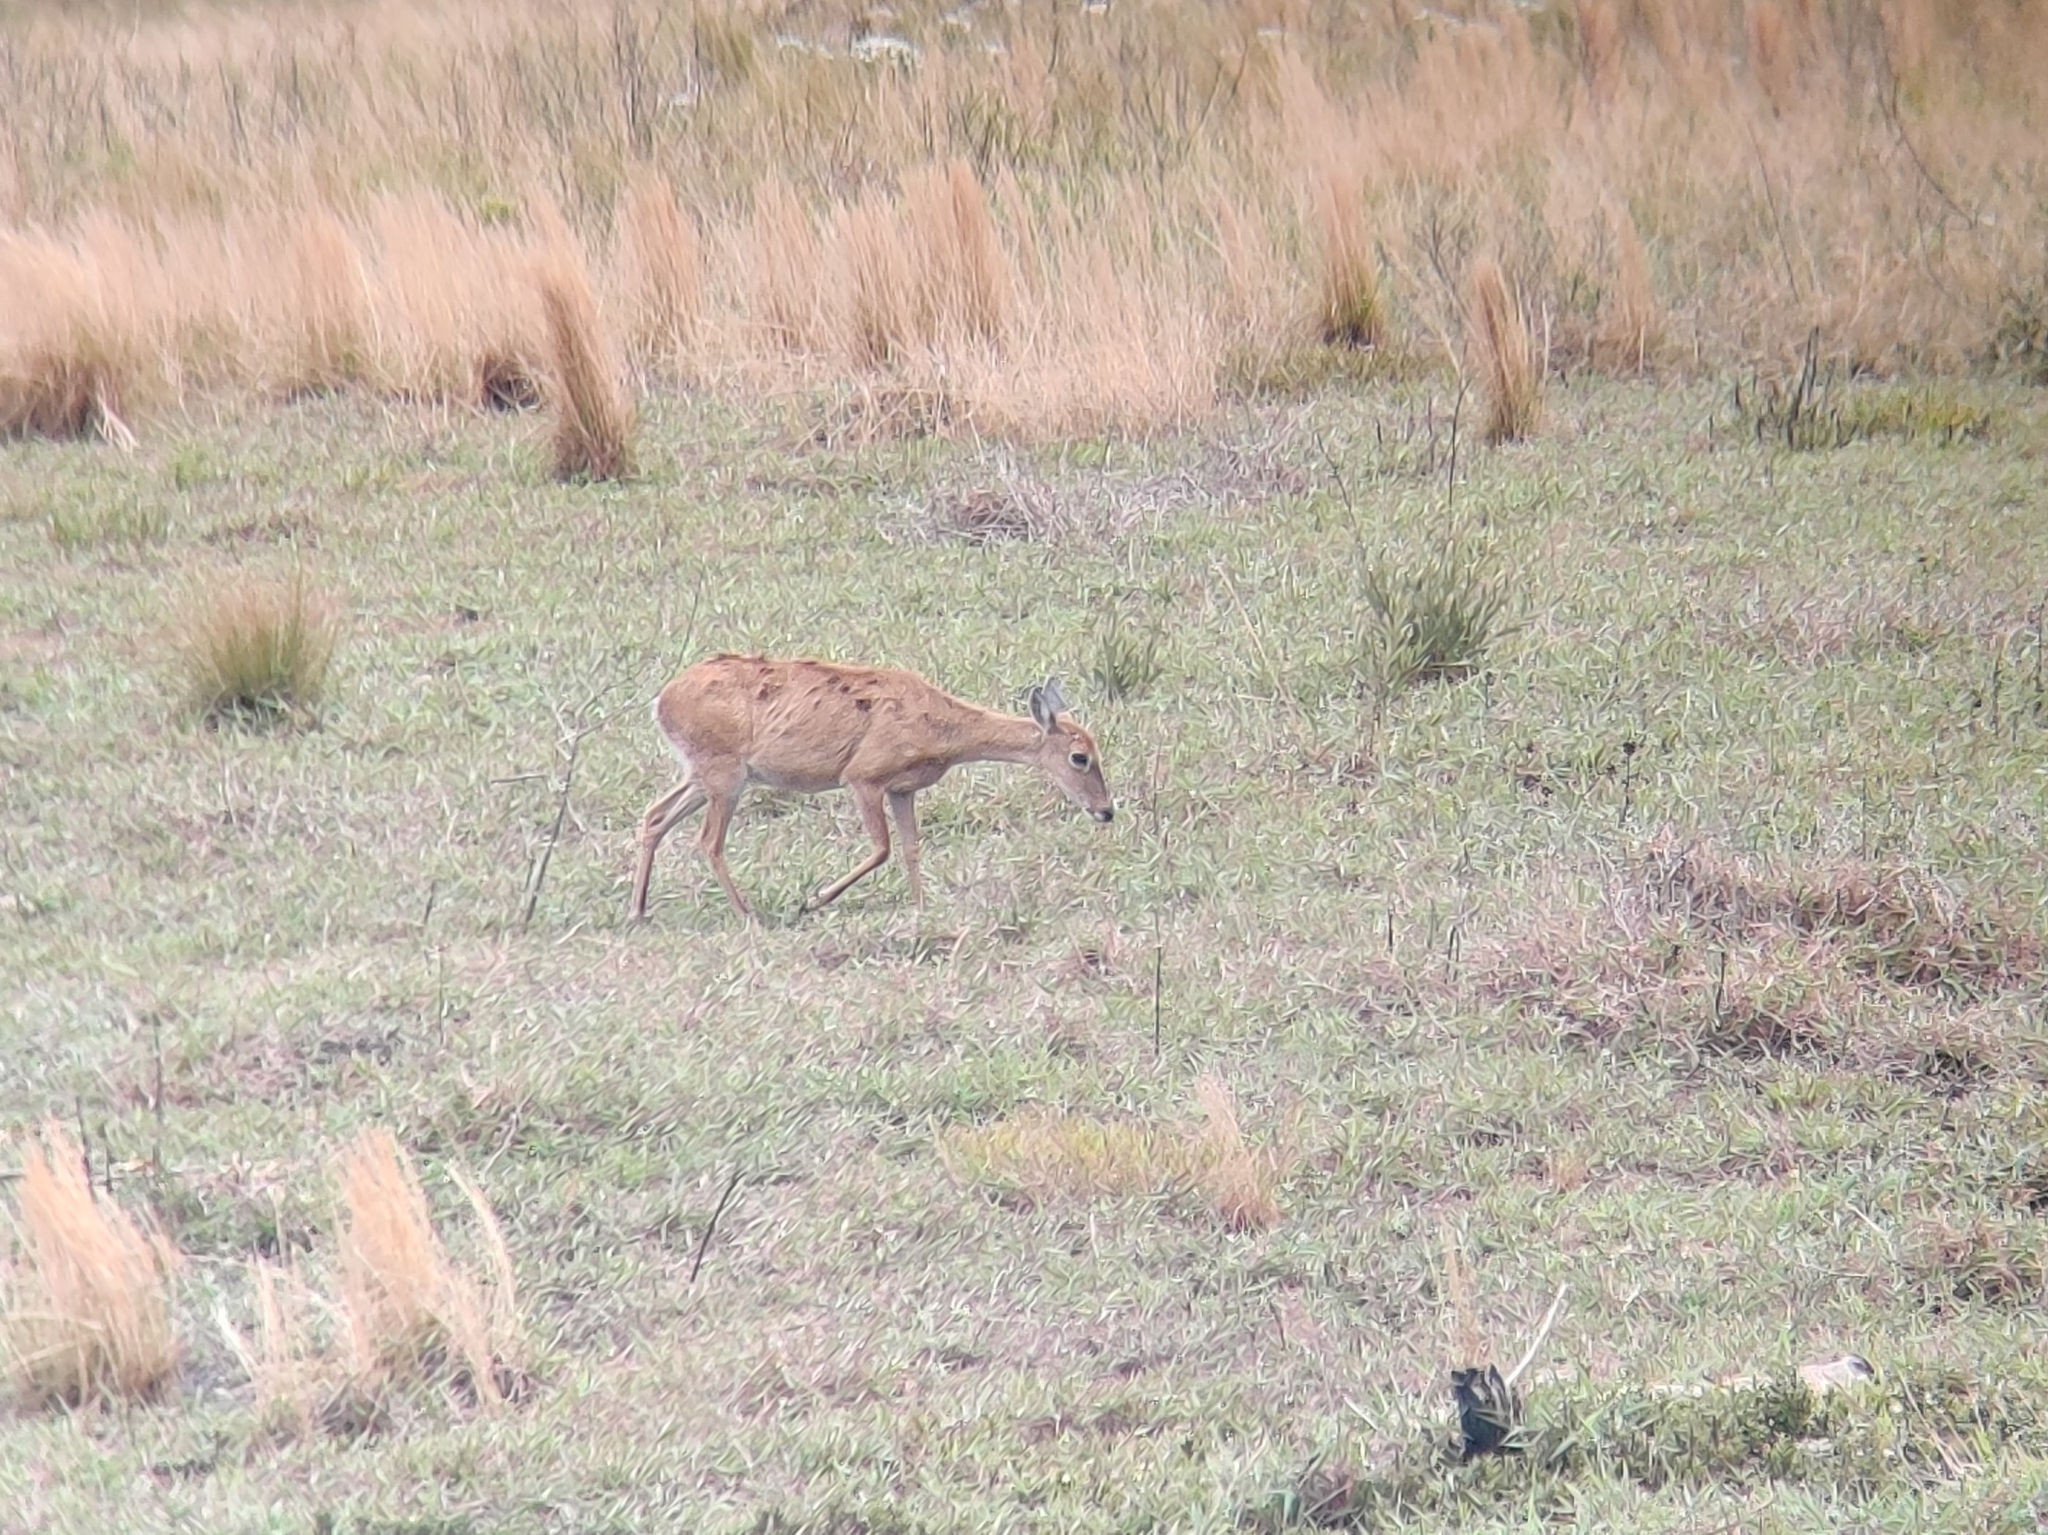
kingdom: Animalia
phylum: Chordata
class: Mammalia
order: Artiodactyla
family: Cervidae
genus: Ozotoceros
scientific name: Ozotoceros bezoarticus
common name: Pampas deer
